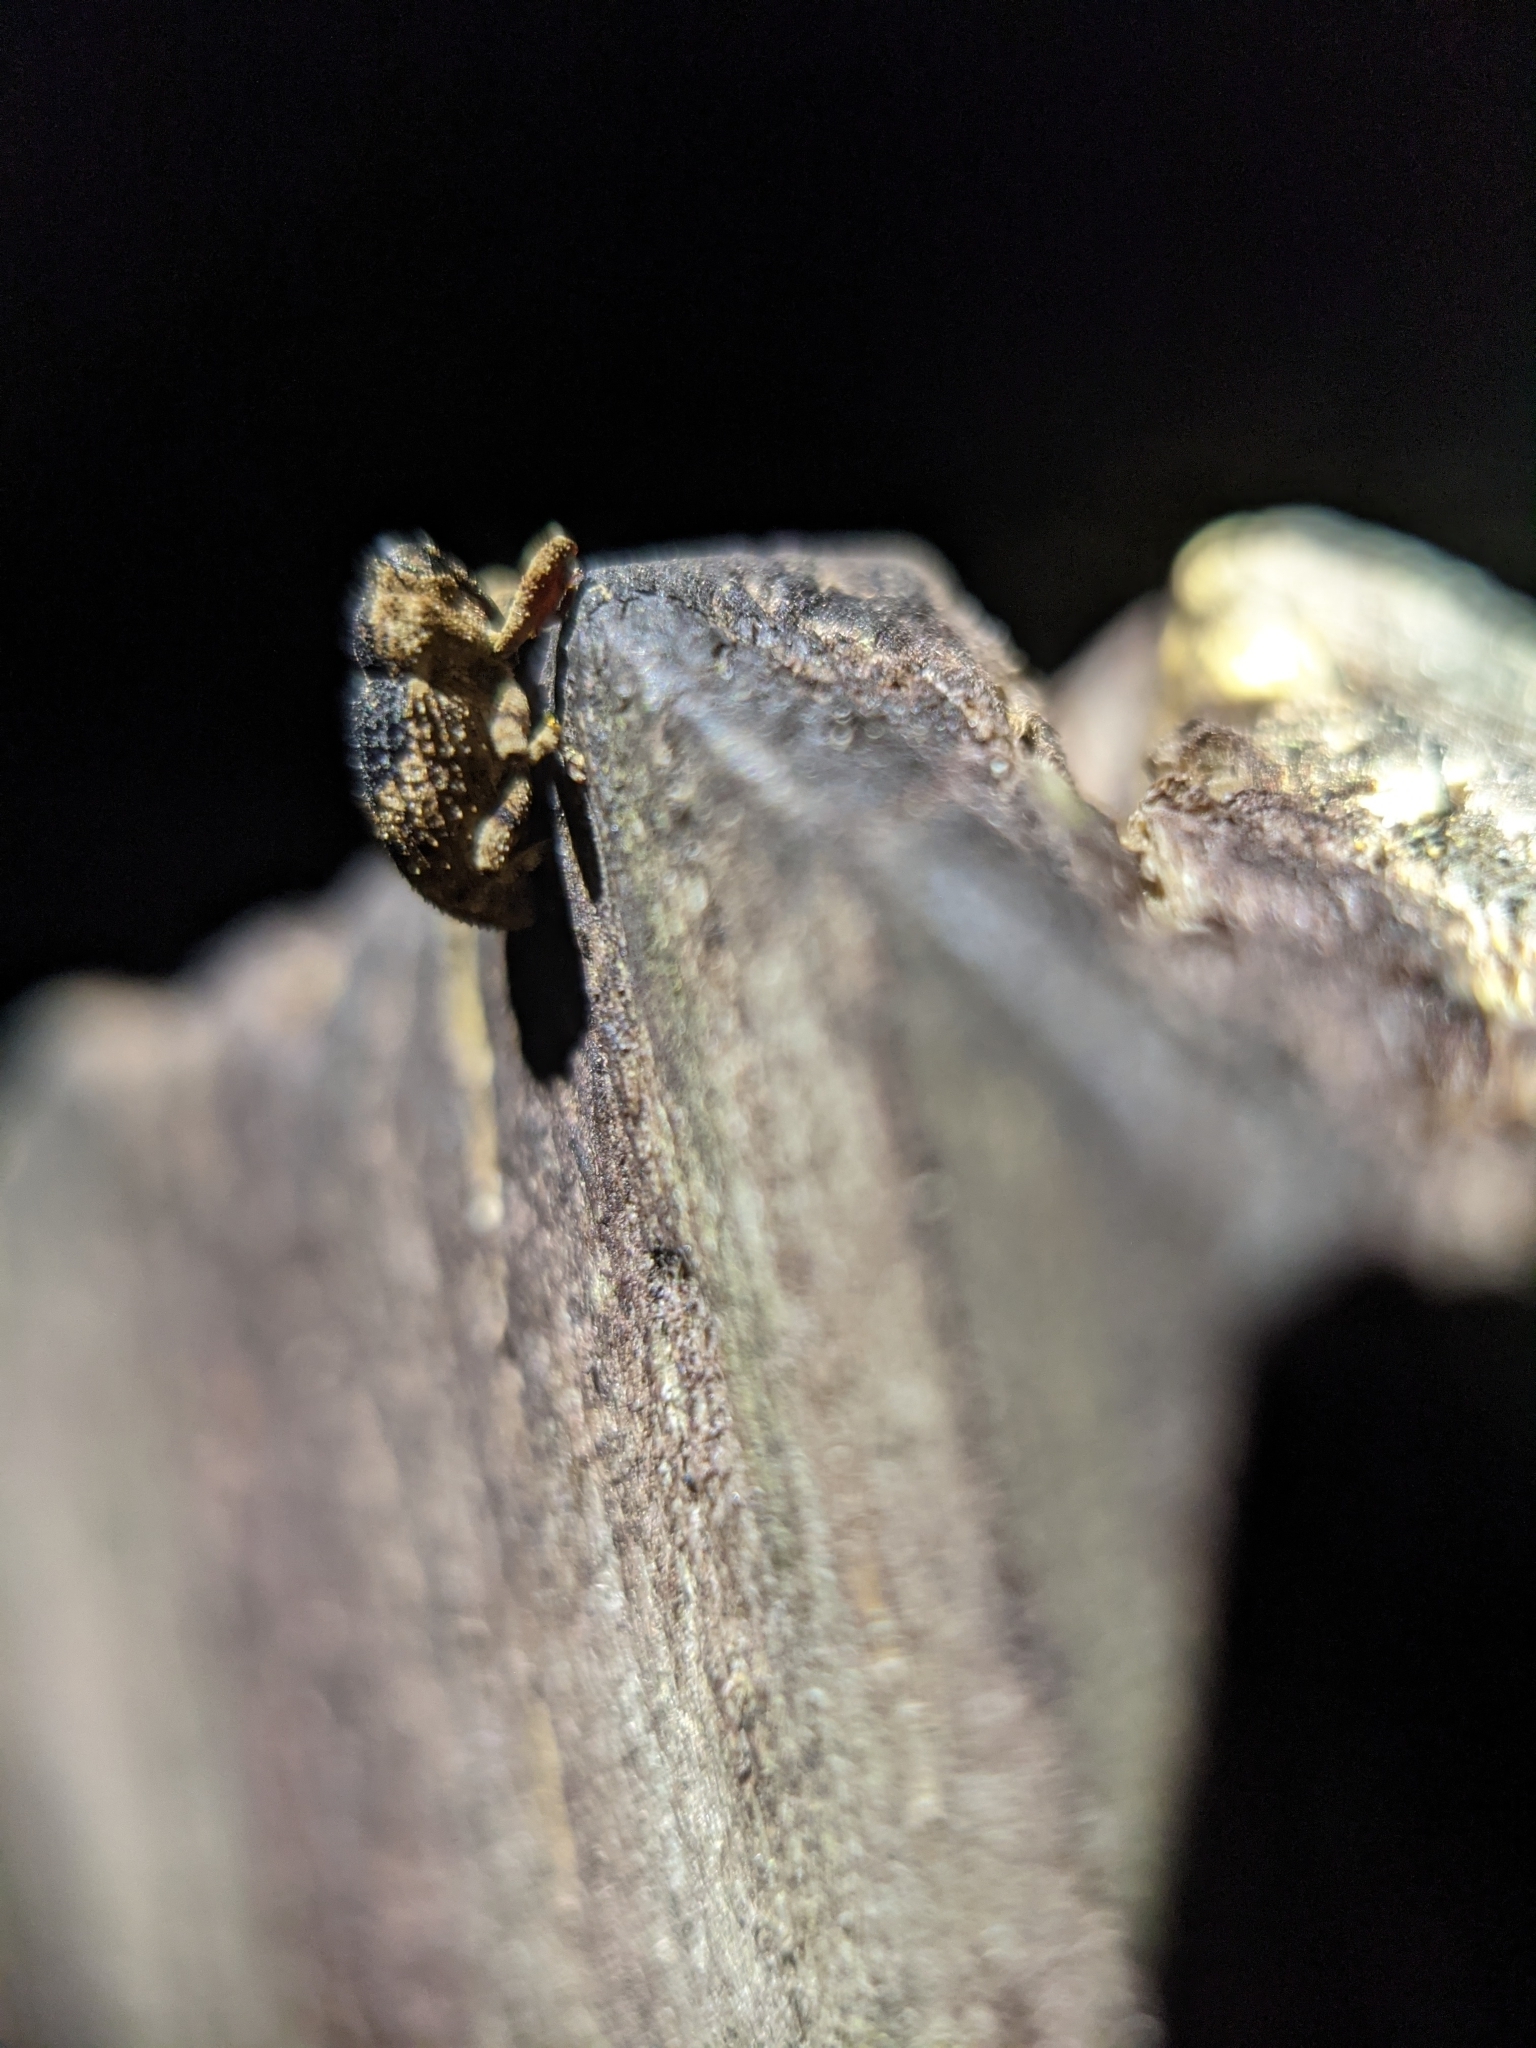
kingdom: Animalia
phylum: Arthropoda
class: Insecta
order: Coleoptera
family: Curculionidae
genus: Cophes
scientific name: Cophes fallax
